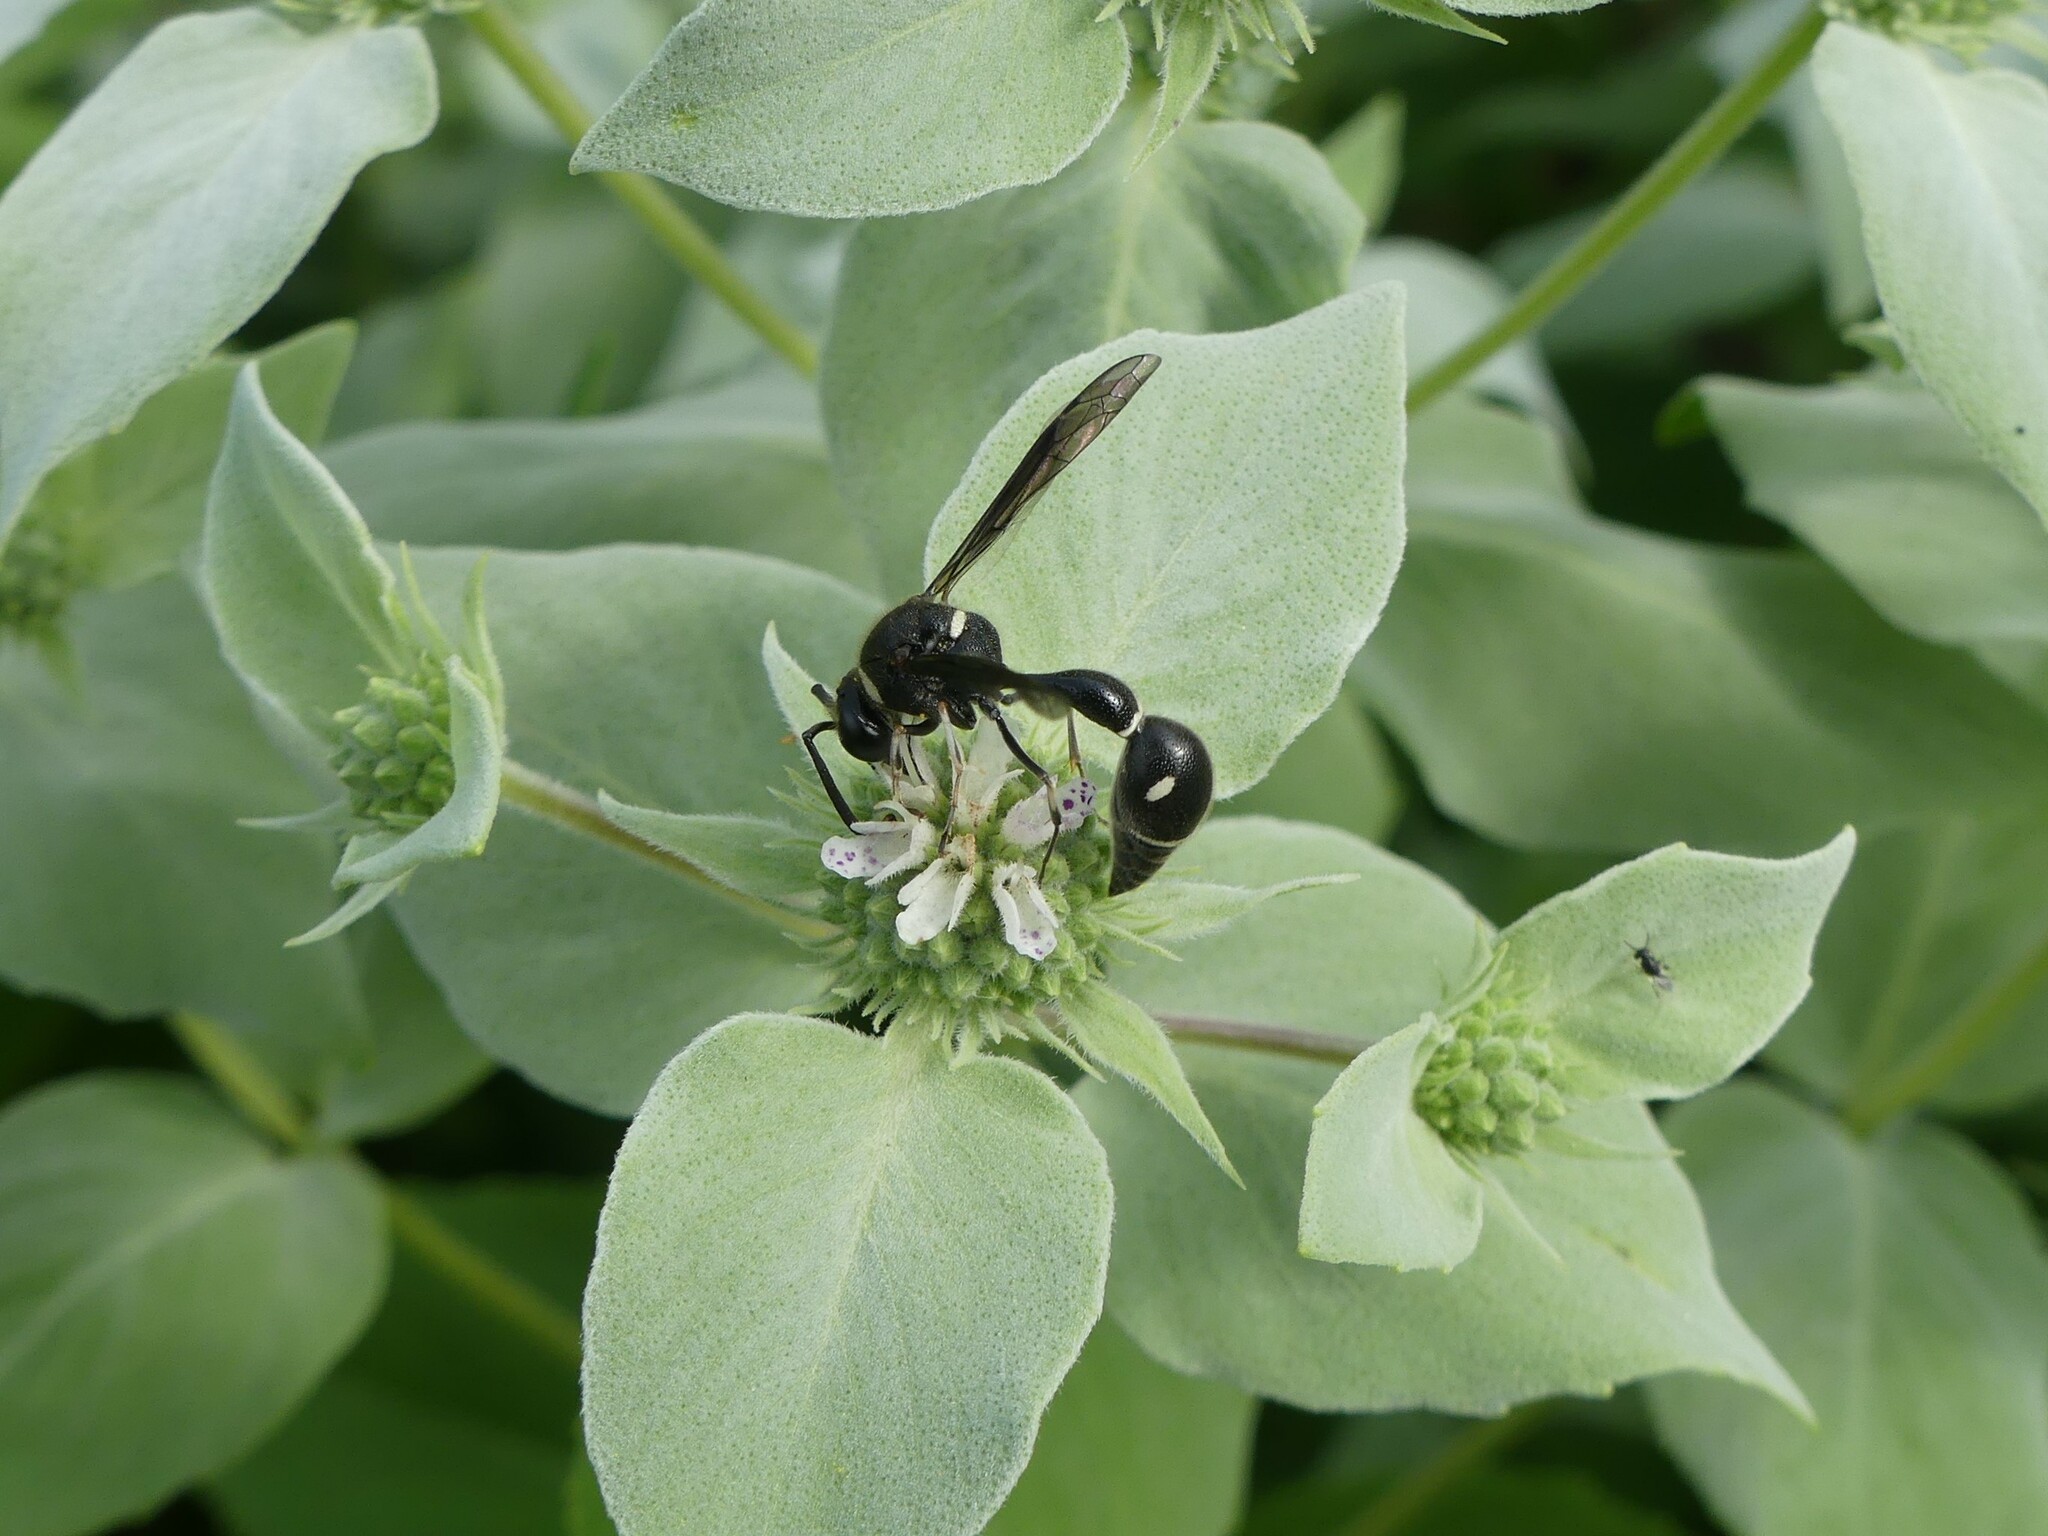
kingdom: Animalia
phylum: Arthropoda
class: Insecta
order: Hymenoptera
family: Vespidae
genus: Eumenes
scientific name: Eumenes fraternus
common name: Fraternal potter wasp
